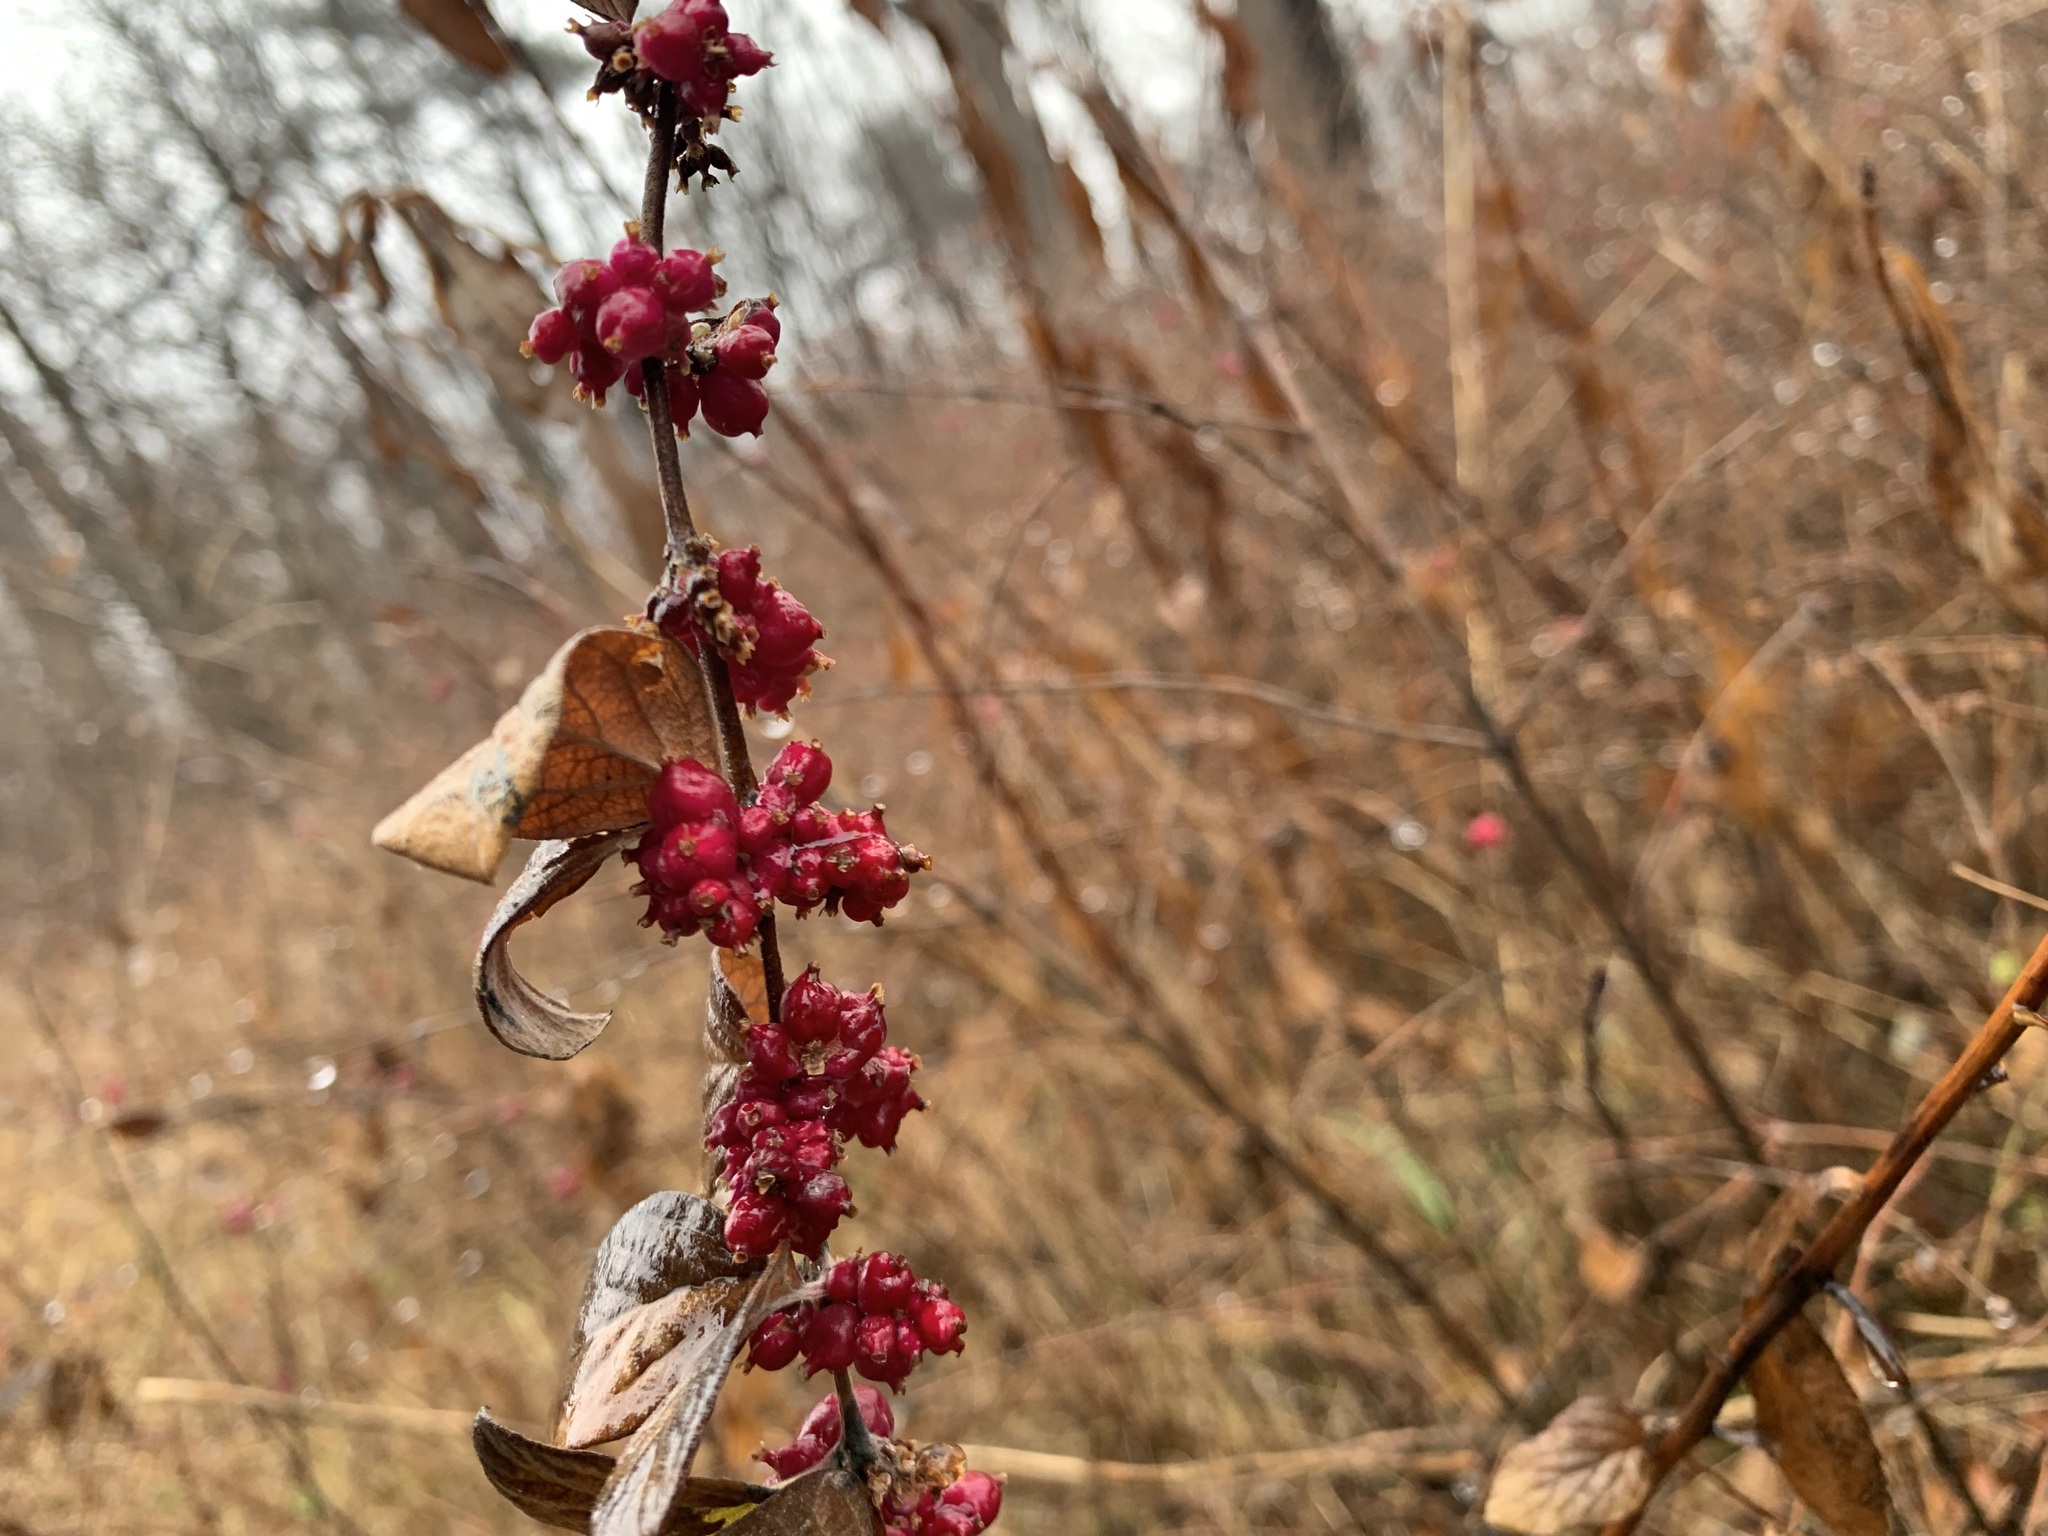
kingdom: Plantae
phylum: Tracheophyta
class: Magnoliopsida
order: Dipsacales
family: Caprifoliaceae
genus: Symphoricarpos
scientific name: Symphoricarpos orbiculatus
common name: Coralberry
